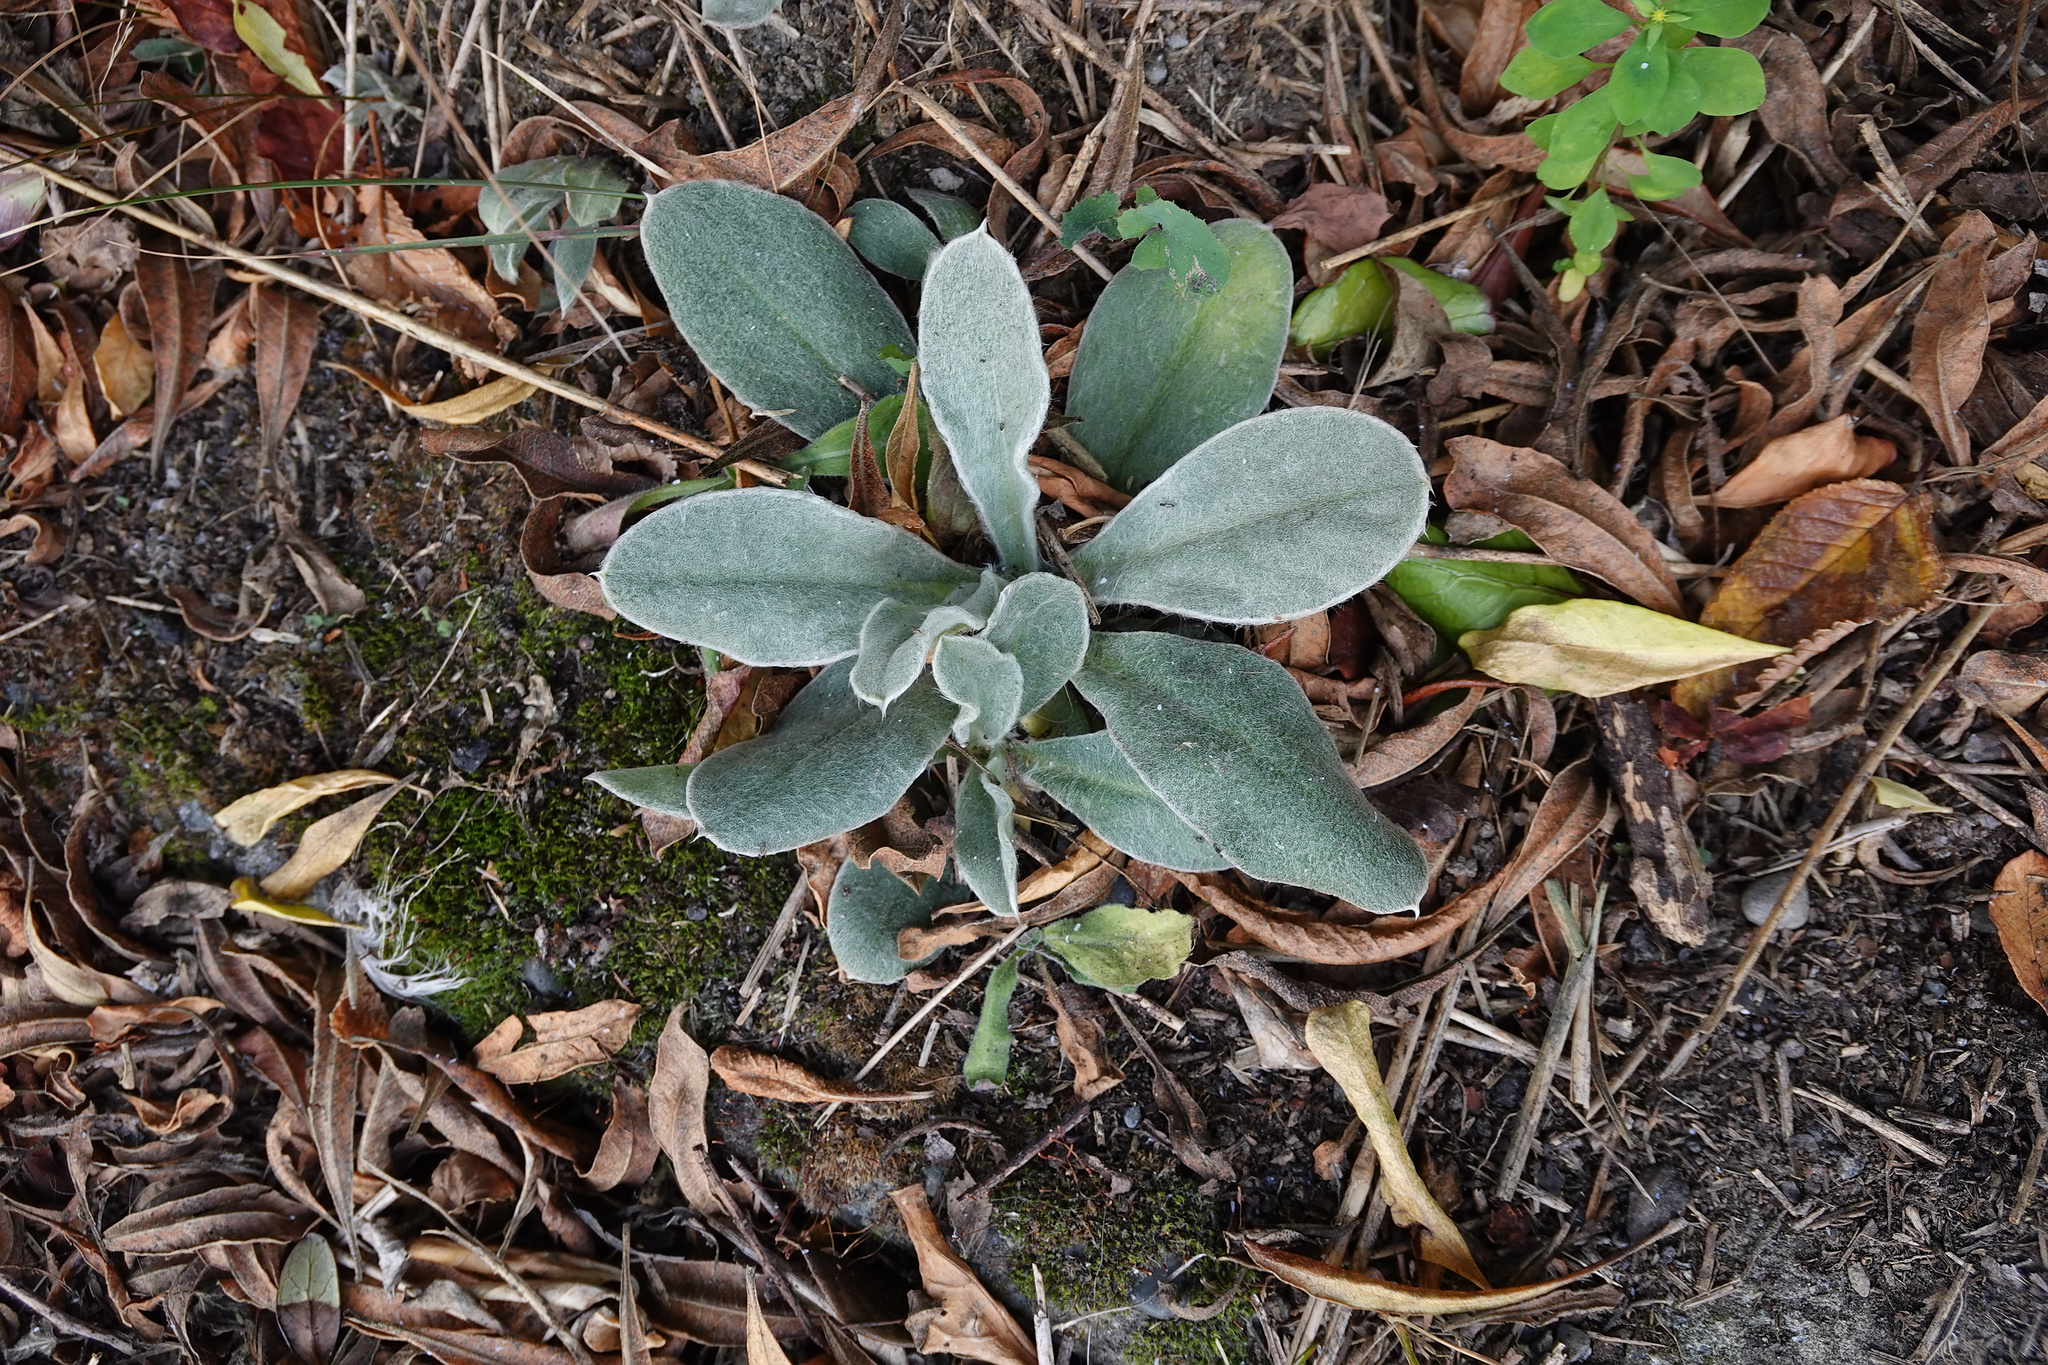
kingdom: Plantae
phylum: Tracheophyta
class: Magnoliopsida
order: Brassicales
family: Brassicaceae
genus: Matthiola
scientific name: Matthiola incana
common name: Hoary stock
